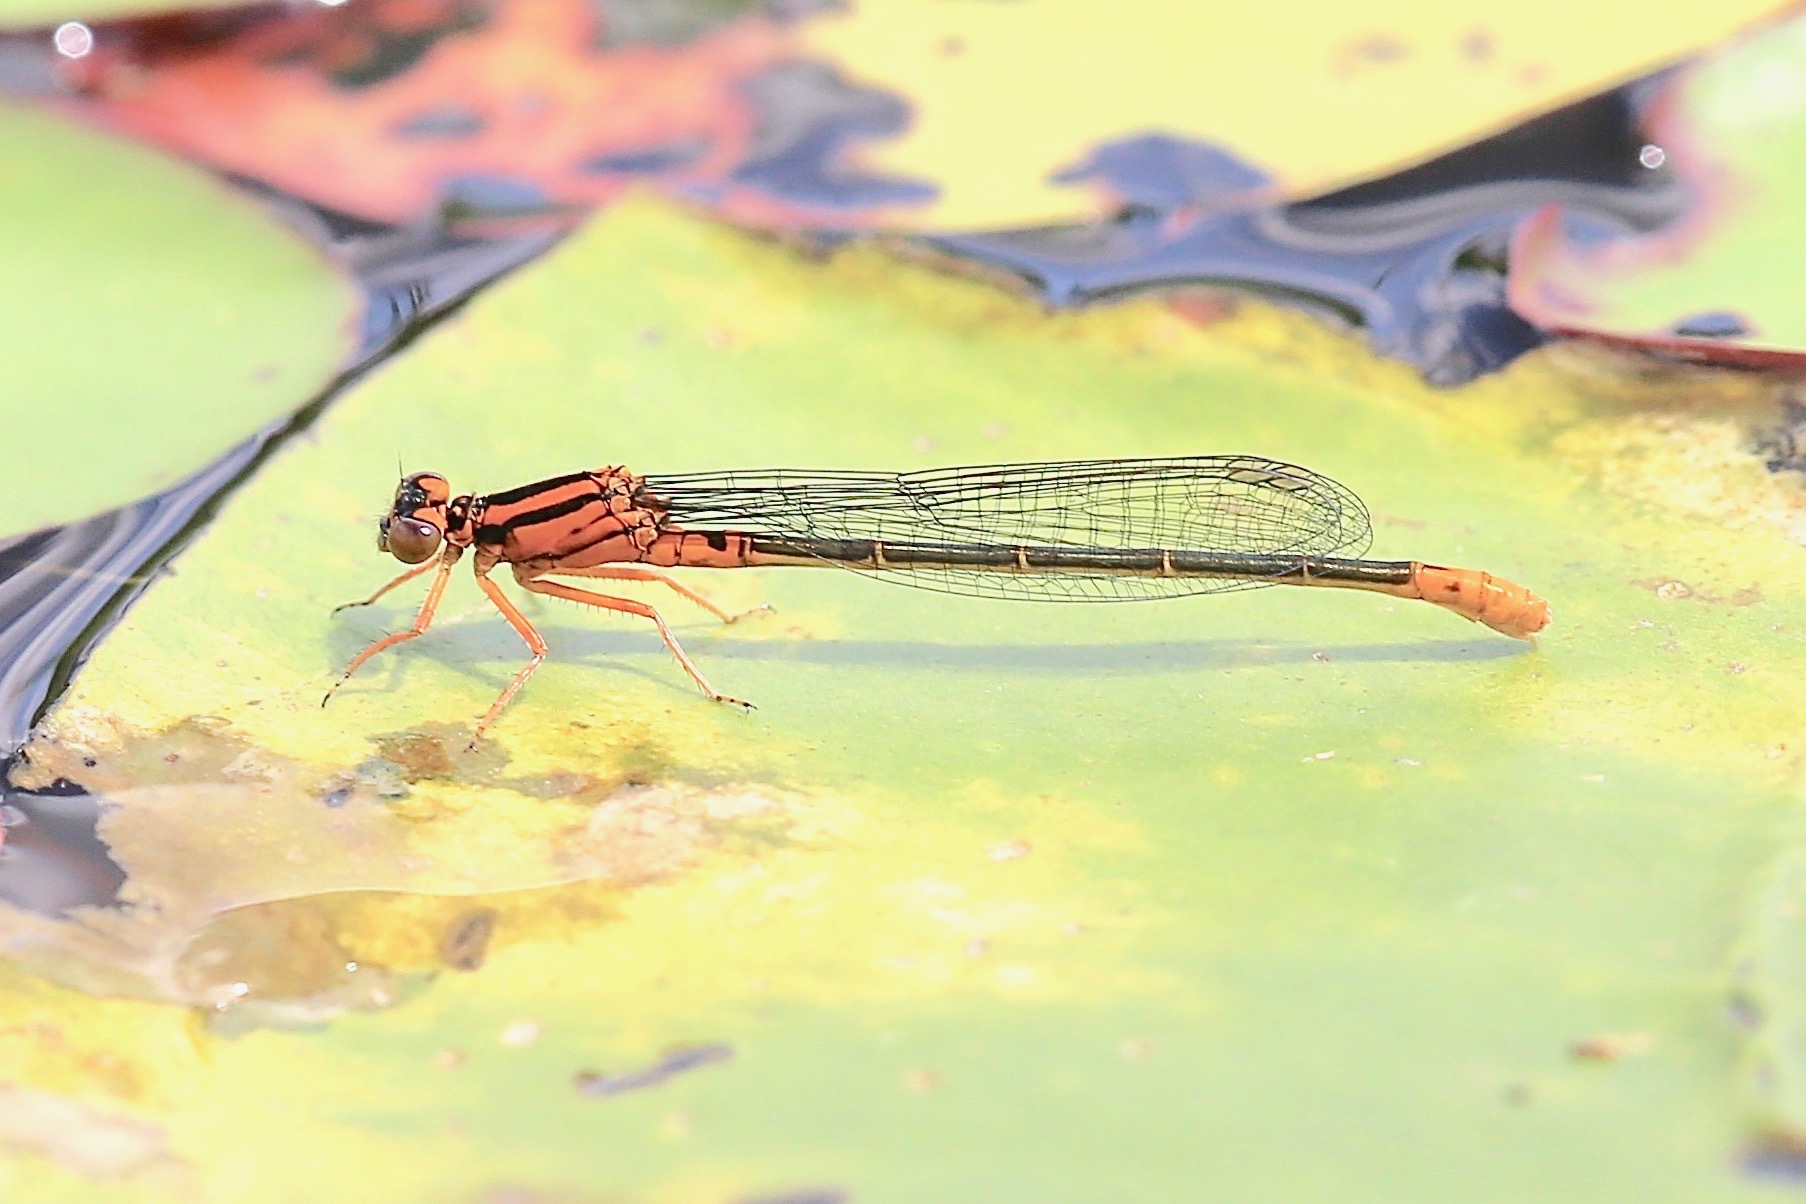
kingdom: Animalia
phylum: Arthropoda
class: Insecta
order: Odonata
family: Coenagrionidae
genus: Ischnura
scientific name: Ischnura kellicotti
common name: Lilypad forktail
